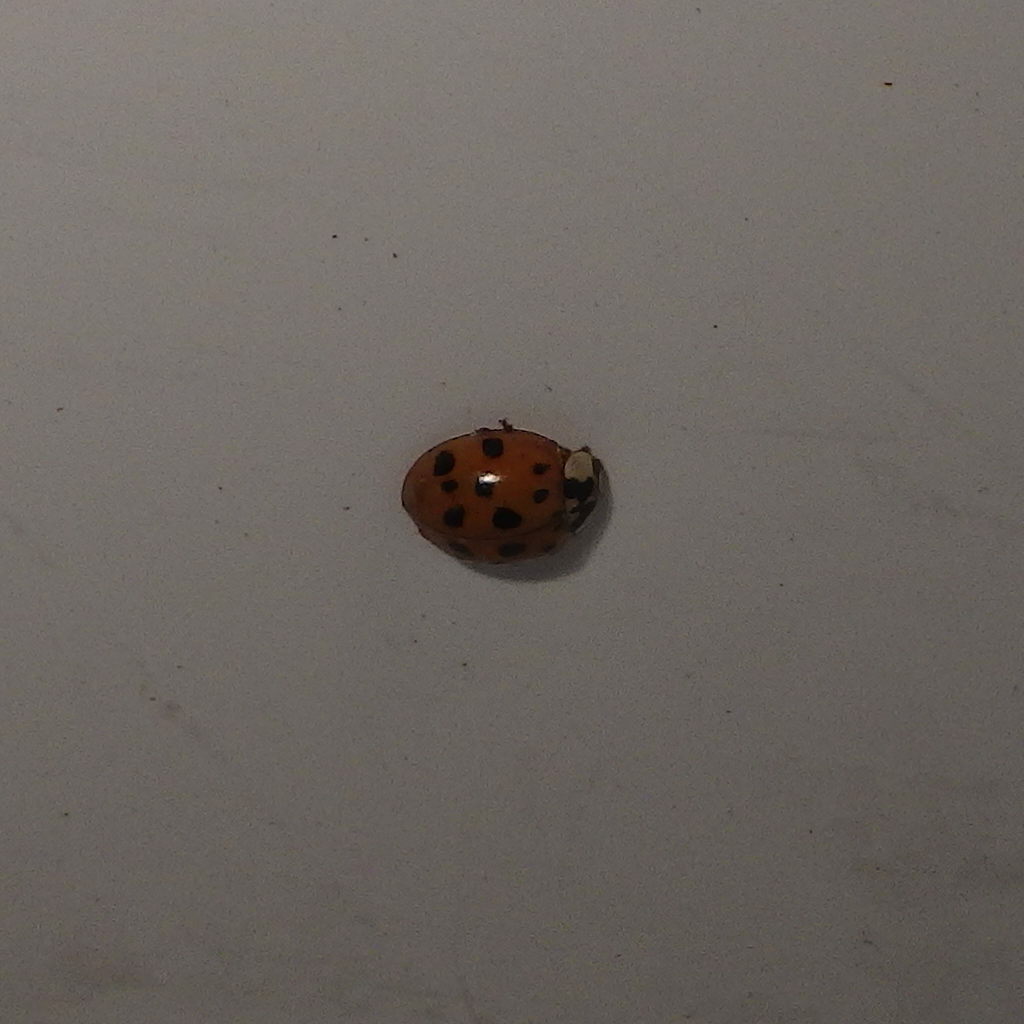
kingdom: Animalia
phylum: Arthropoda
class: Insecta
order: Coleoptera
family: Coccinellidae
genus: Harmonia
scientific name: Harmonia axyridis
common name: Harlequin ladybird
